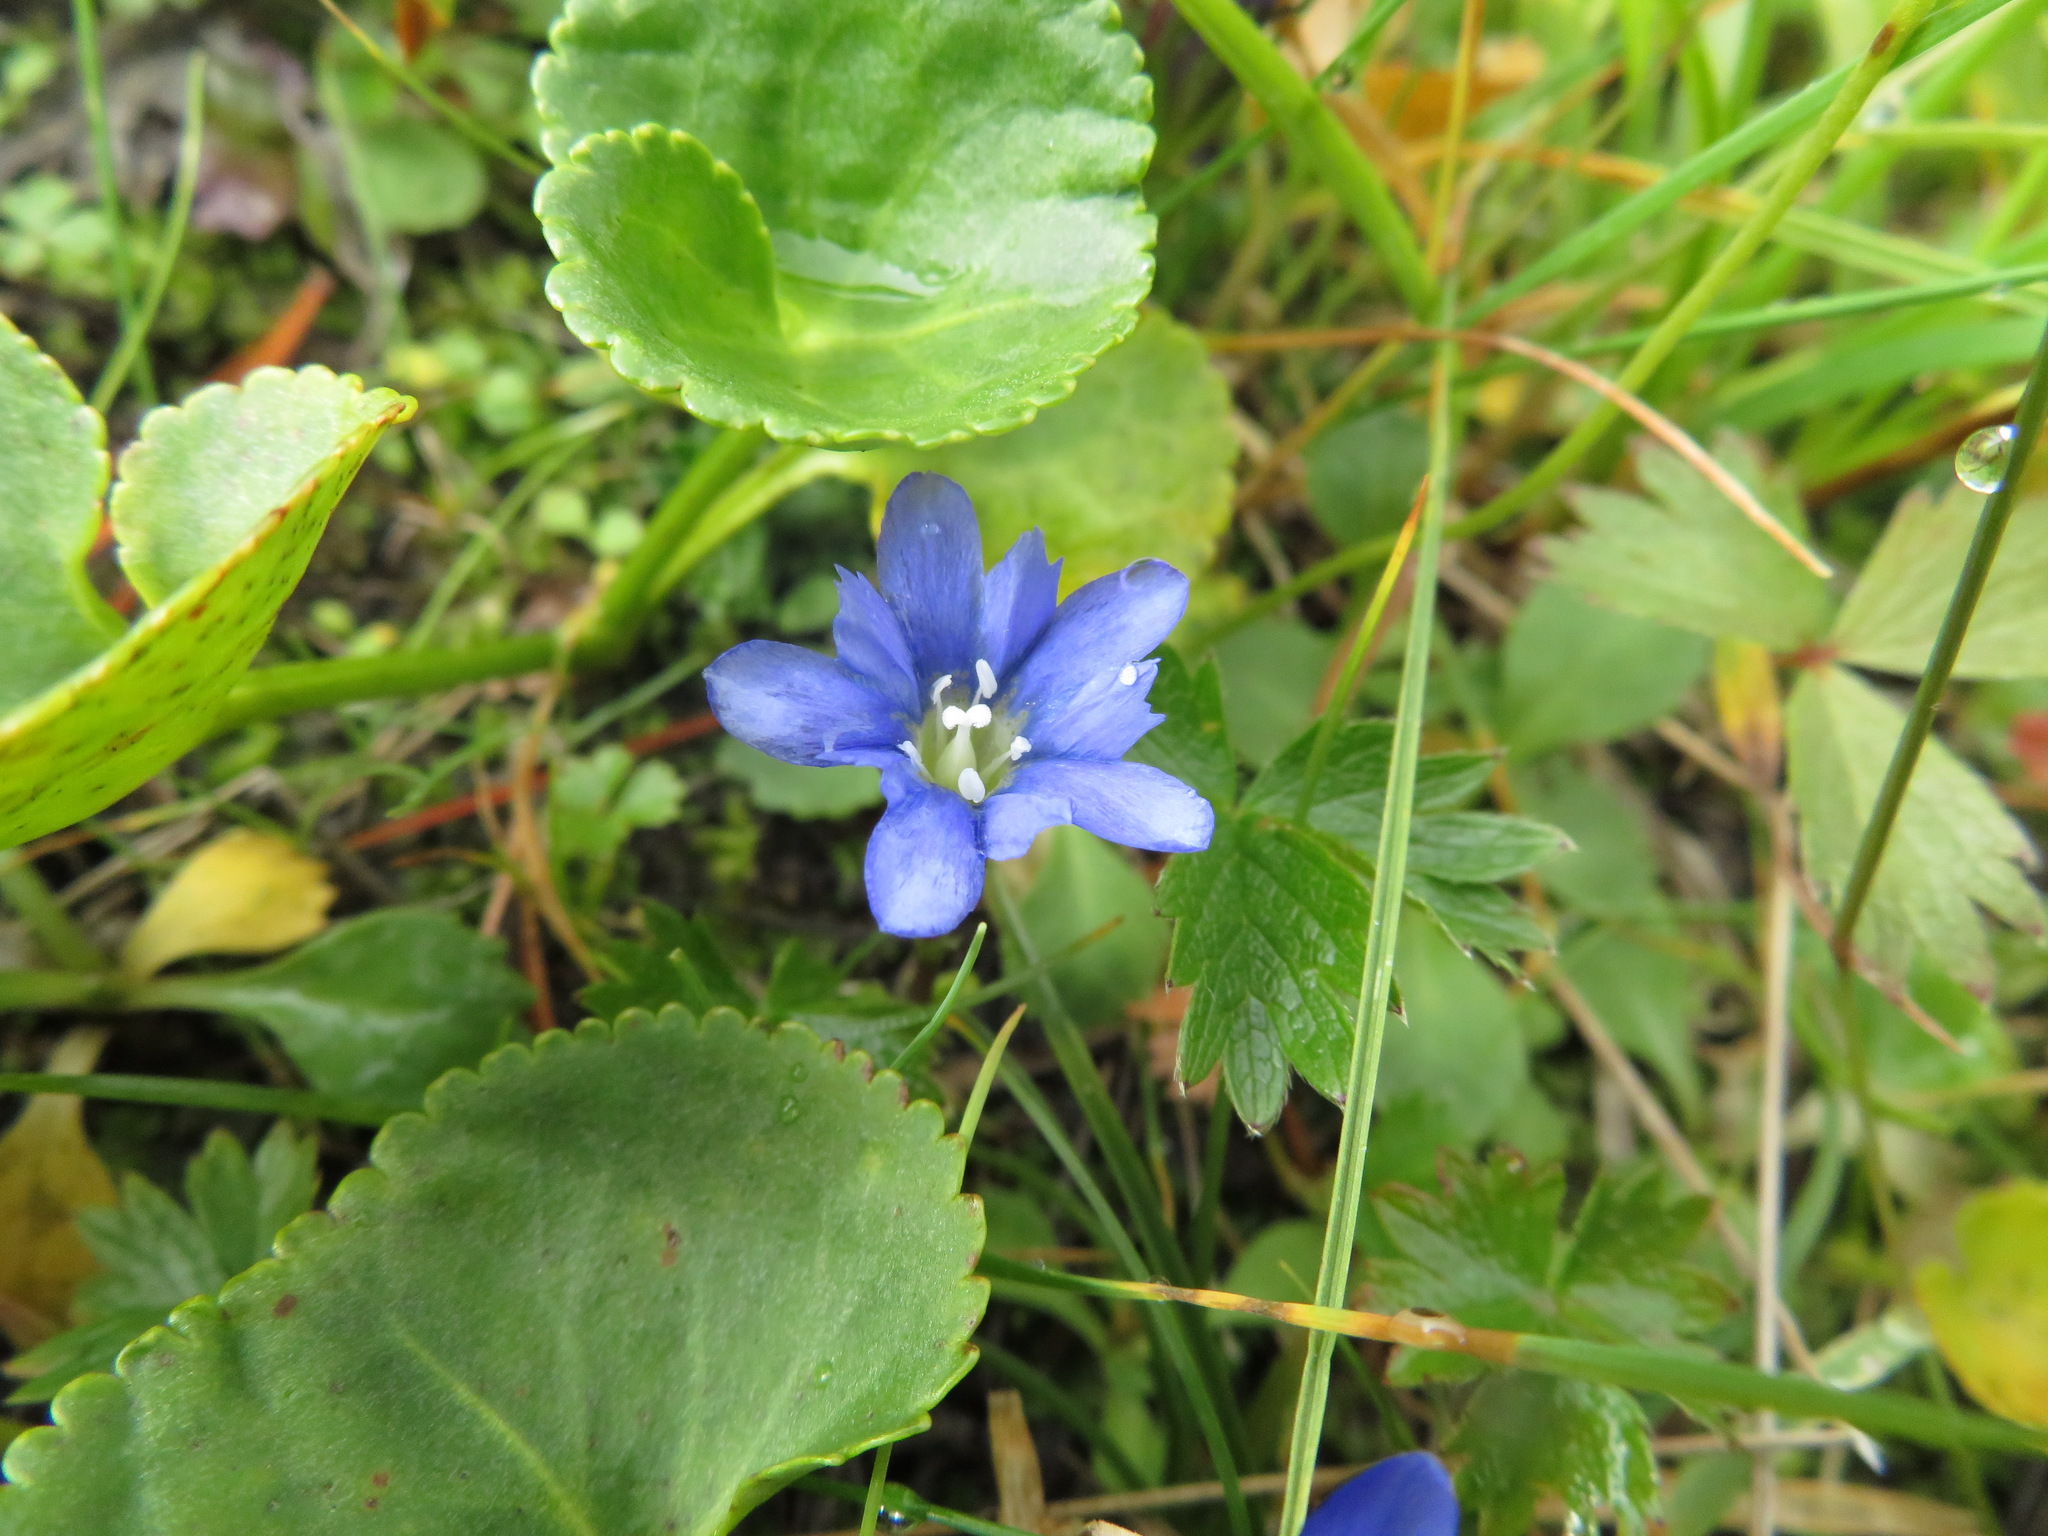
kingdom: Plantae
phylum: Tracheophyta
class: Magnoliopsida
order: Gentianales
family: Gentianaceae
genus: Gentiana
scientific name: Gentiana nipponica
